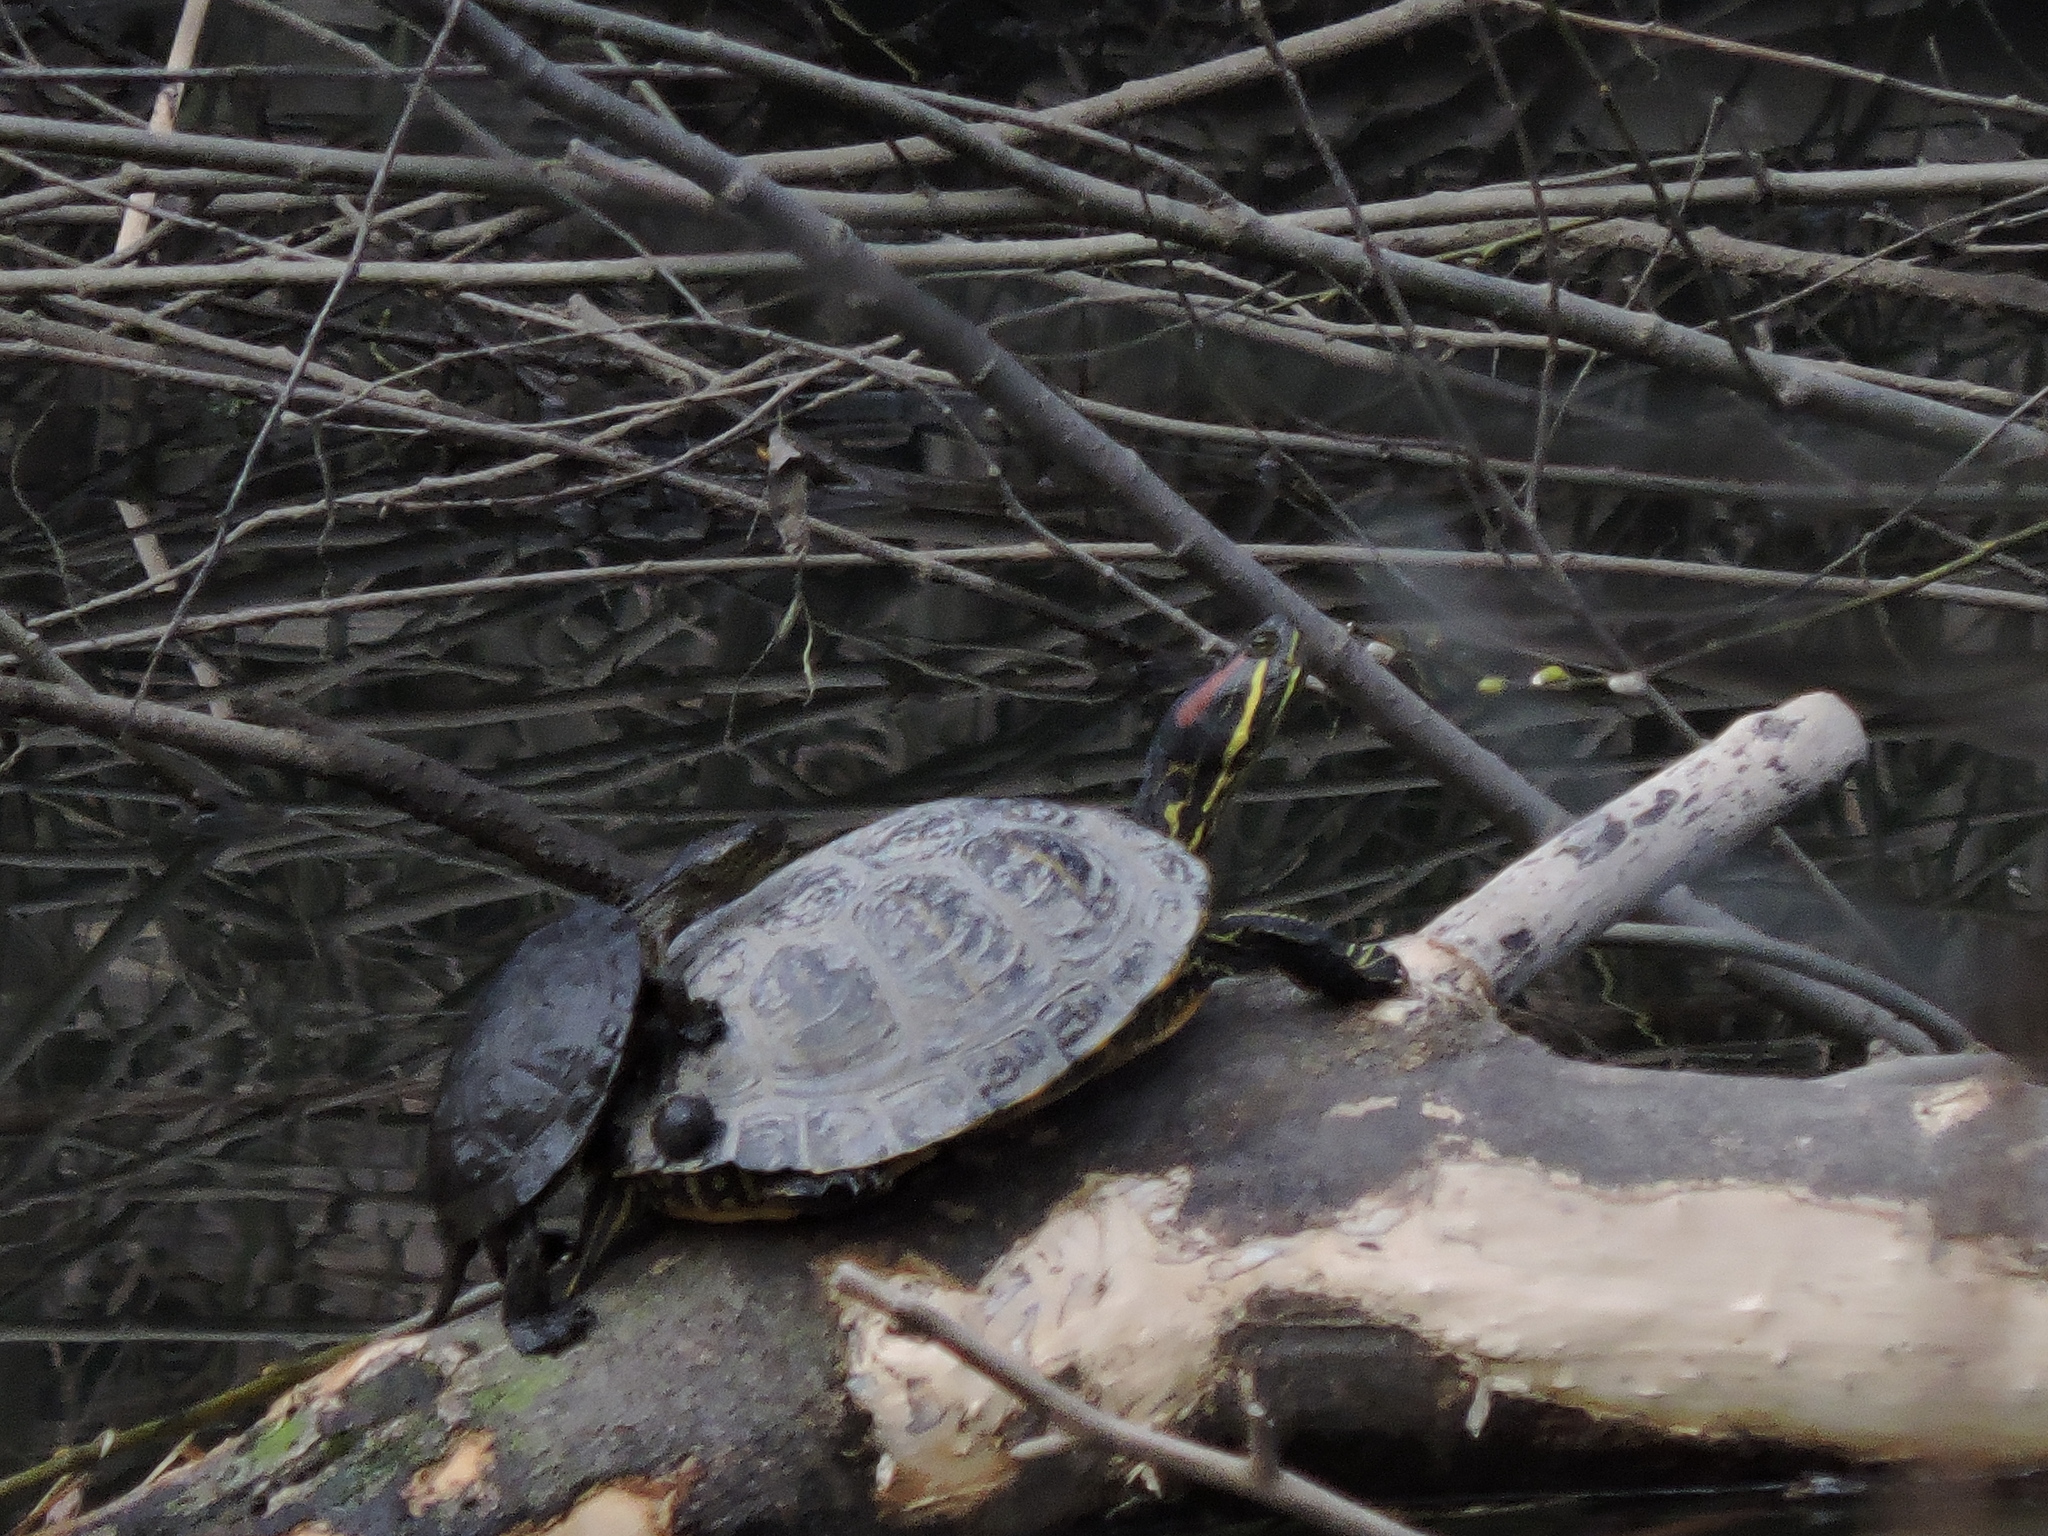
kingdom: Animalia
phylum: Chordata
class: Testudines
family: Emydidae
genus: Trachemys
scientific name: Trachemys scripta
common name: Slider
